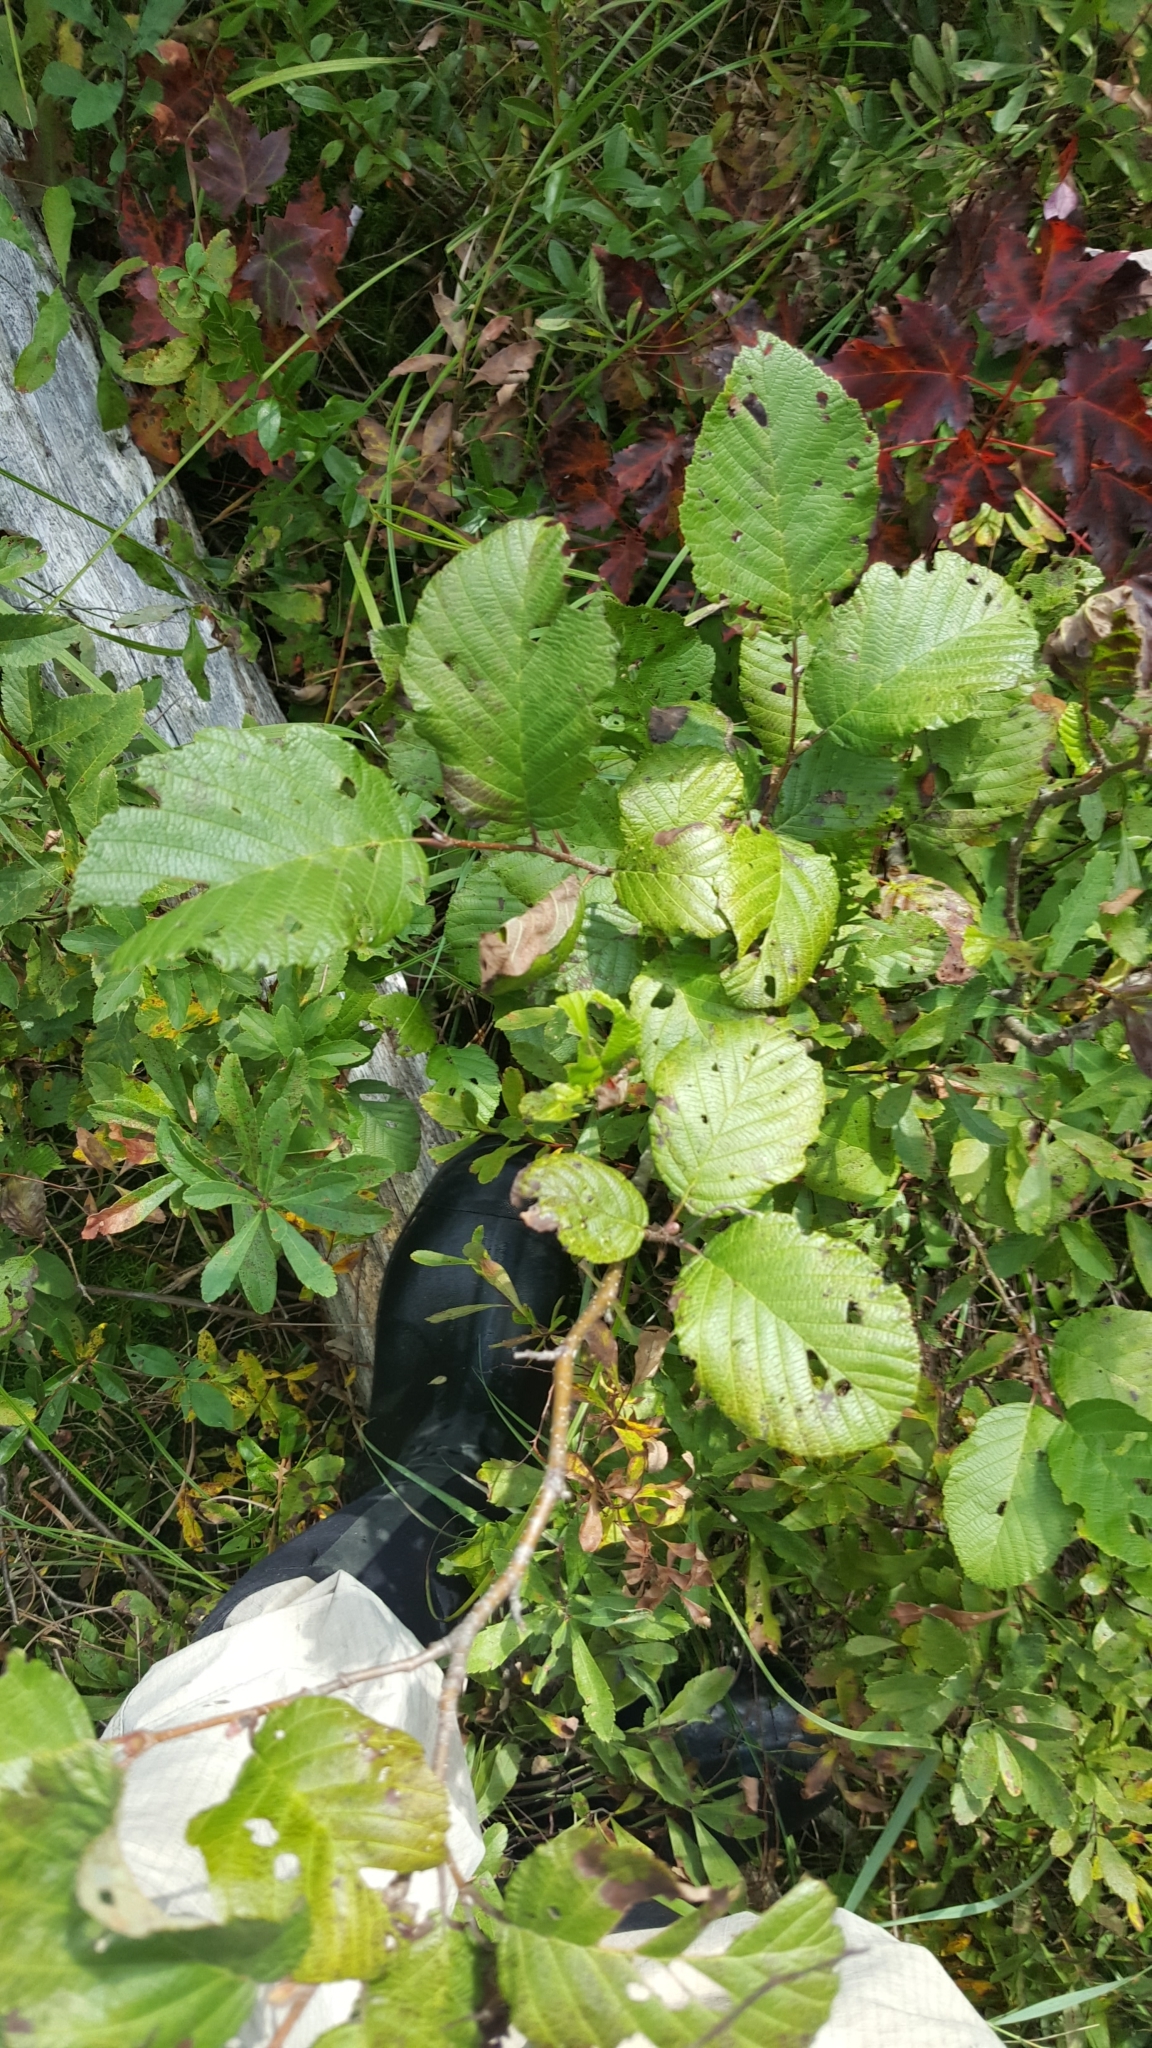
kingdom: Plantae
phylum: Tracheophyta
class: Magnoliopsida
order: Fagales
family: Betulaceae
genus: Alnus
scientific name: Alnus incana
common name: Grey alder
